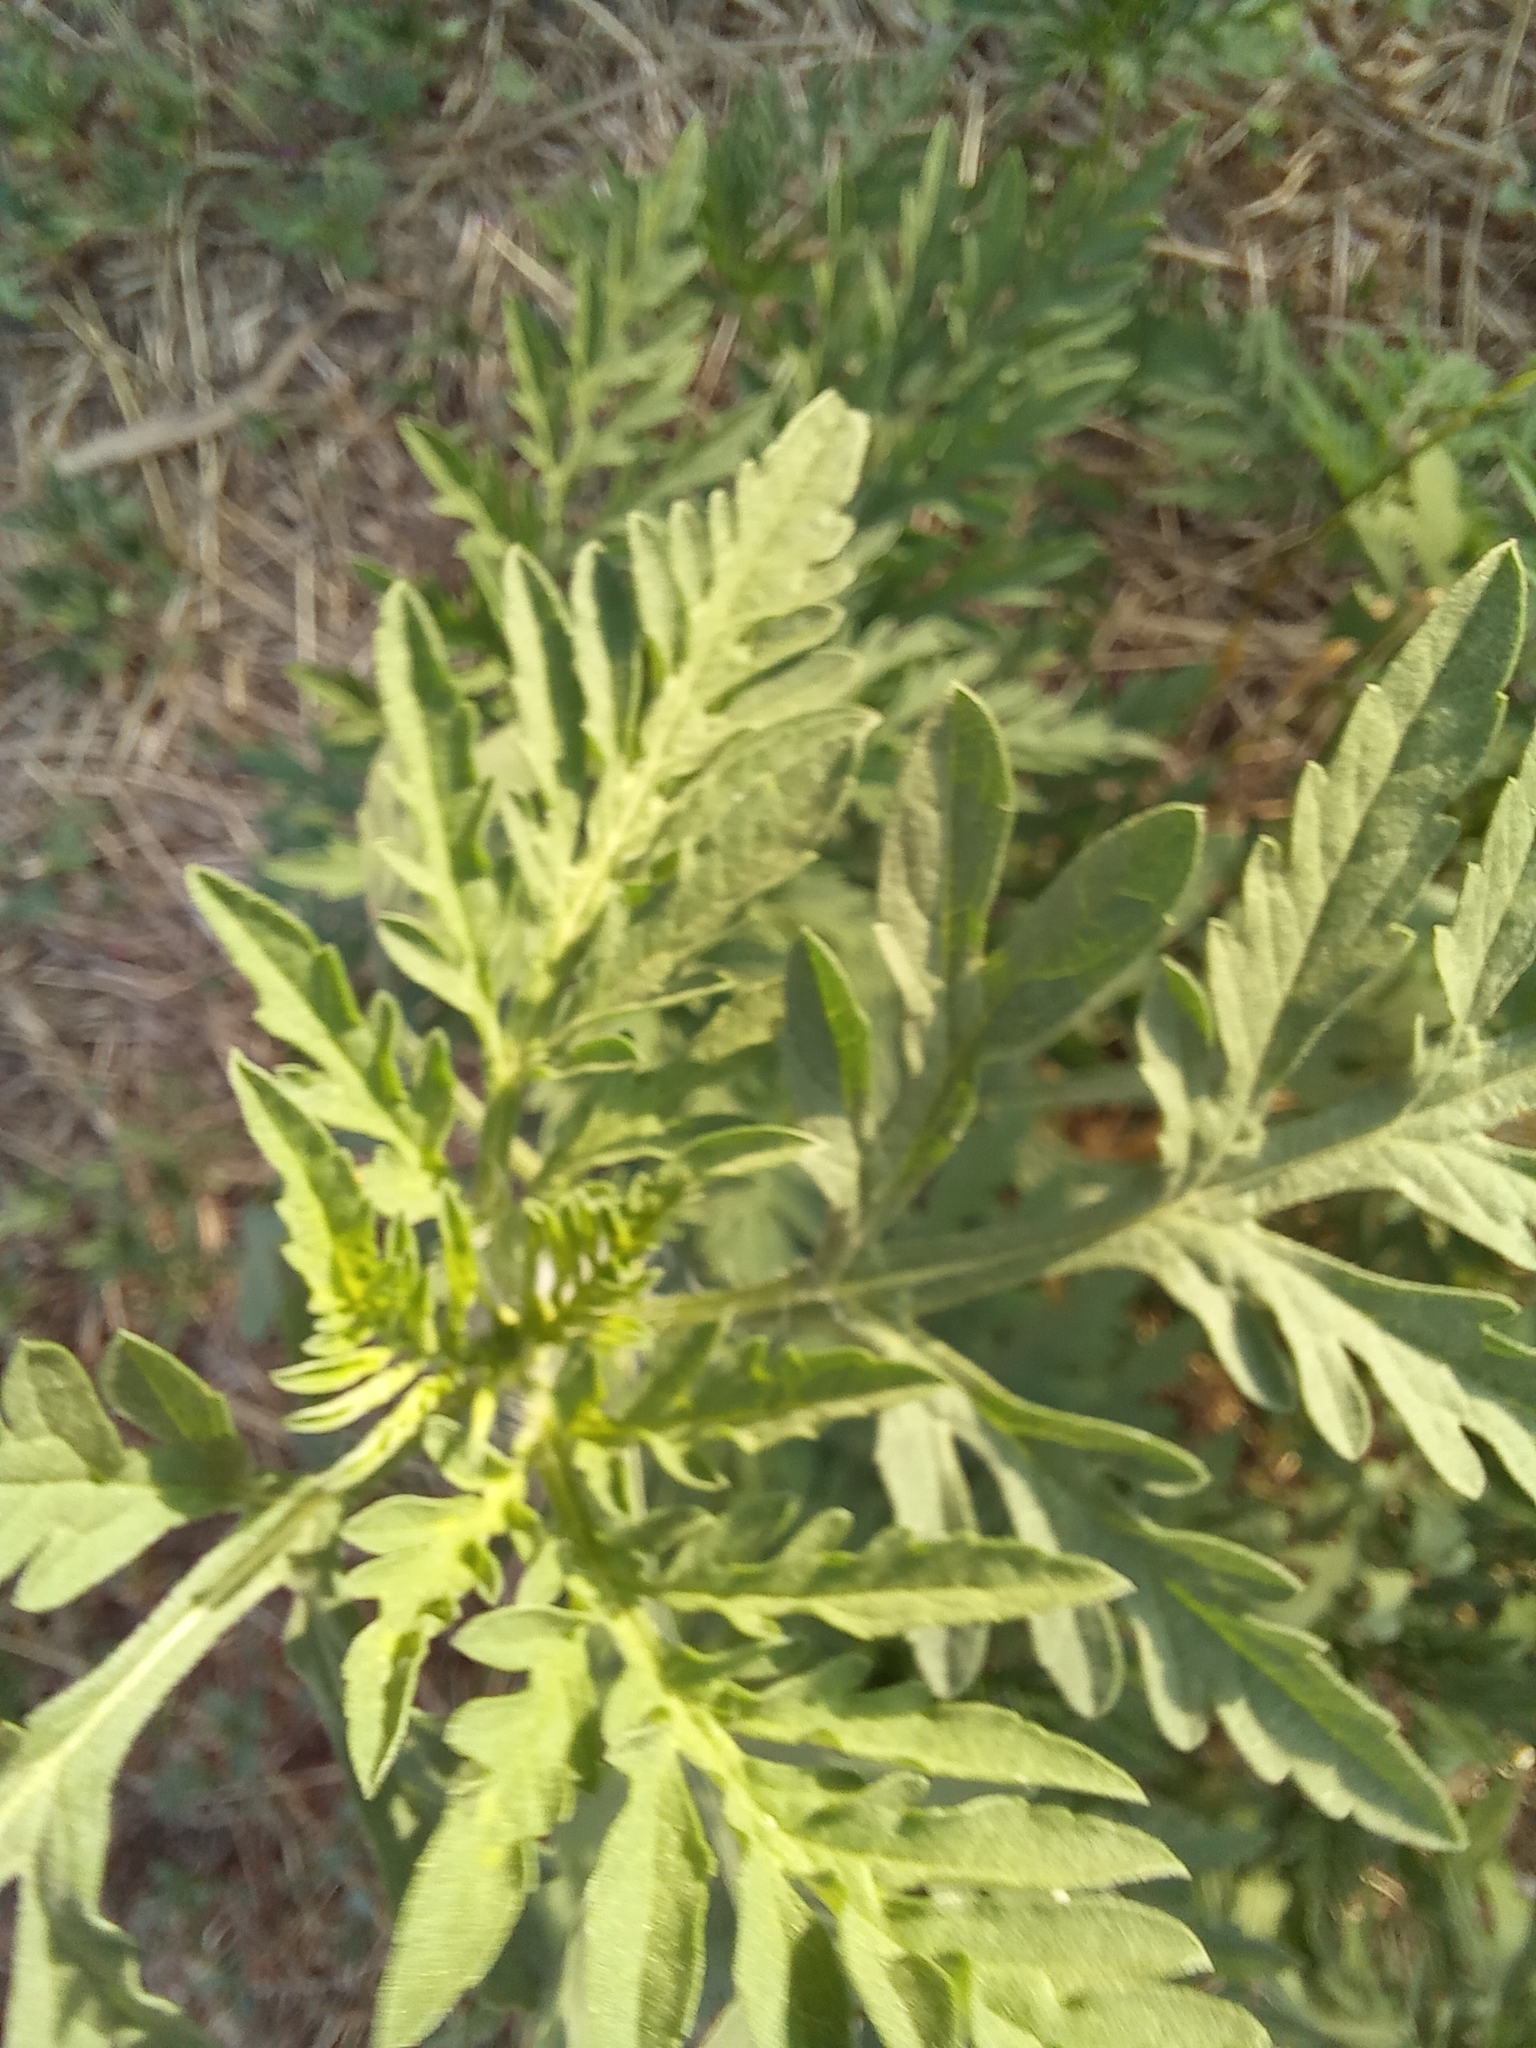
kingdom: Plantae
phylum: Tracheophyta
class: Magnoliopsida
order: Asterales
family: Asteraceae
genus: Ambrosia
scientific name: Ambrosia artemisiifolia
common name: Annual ragweed
